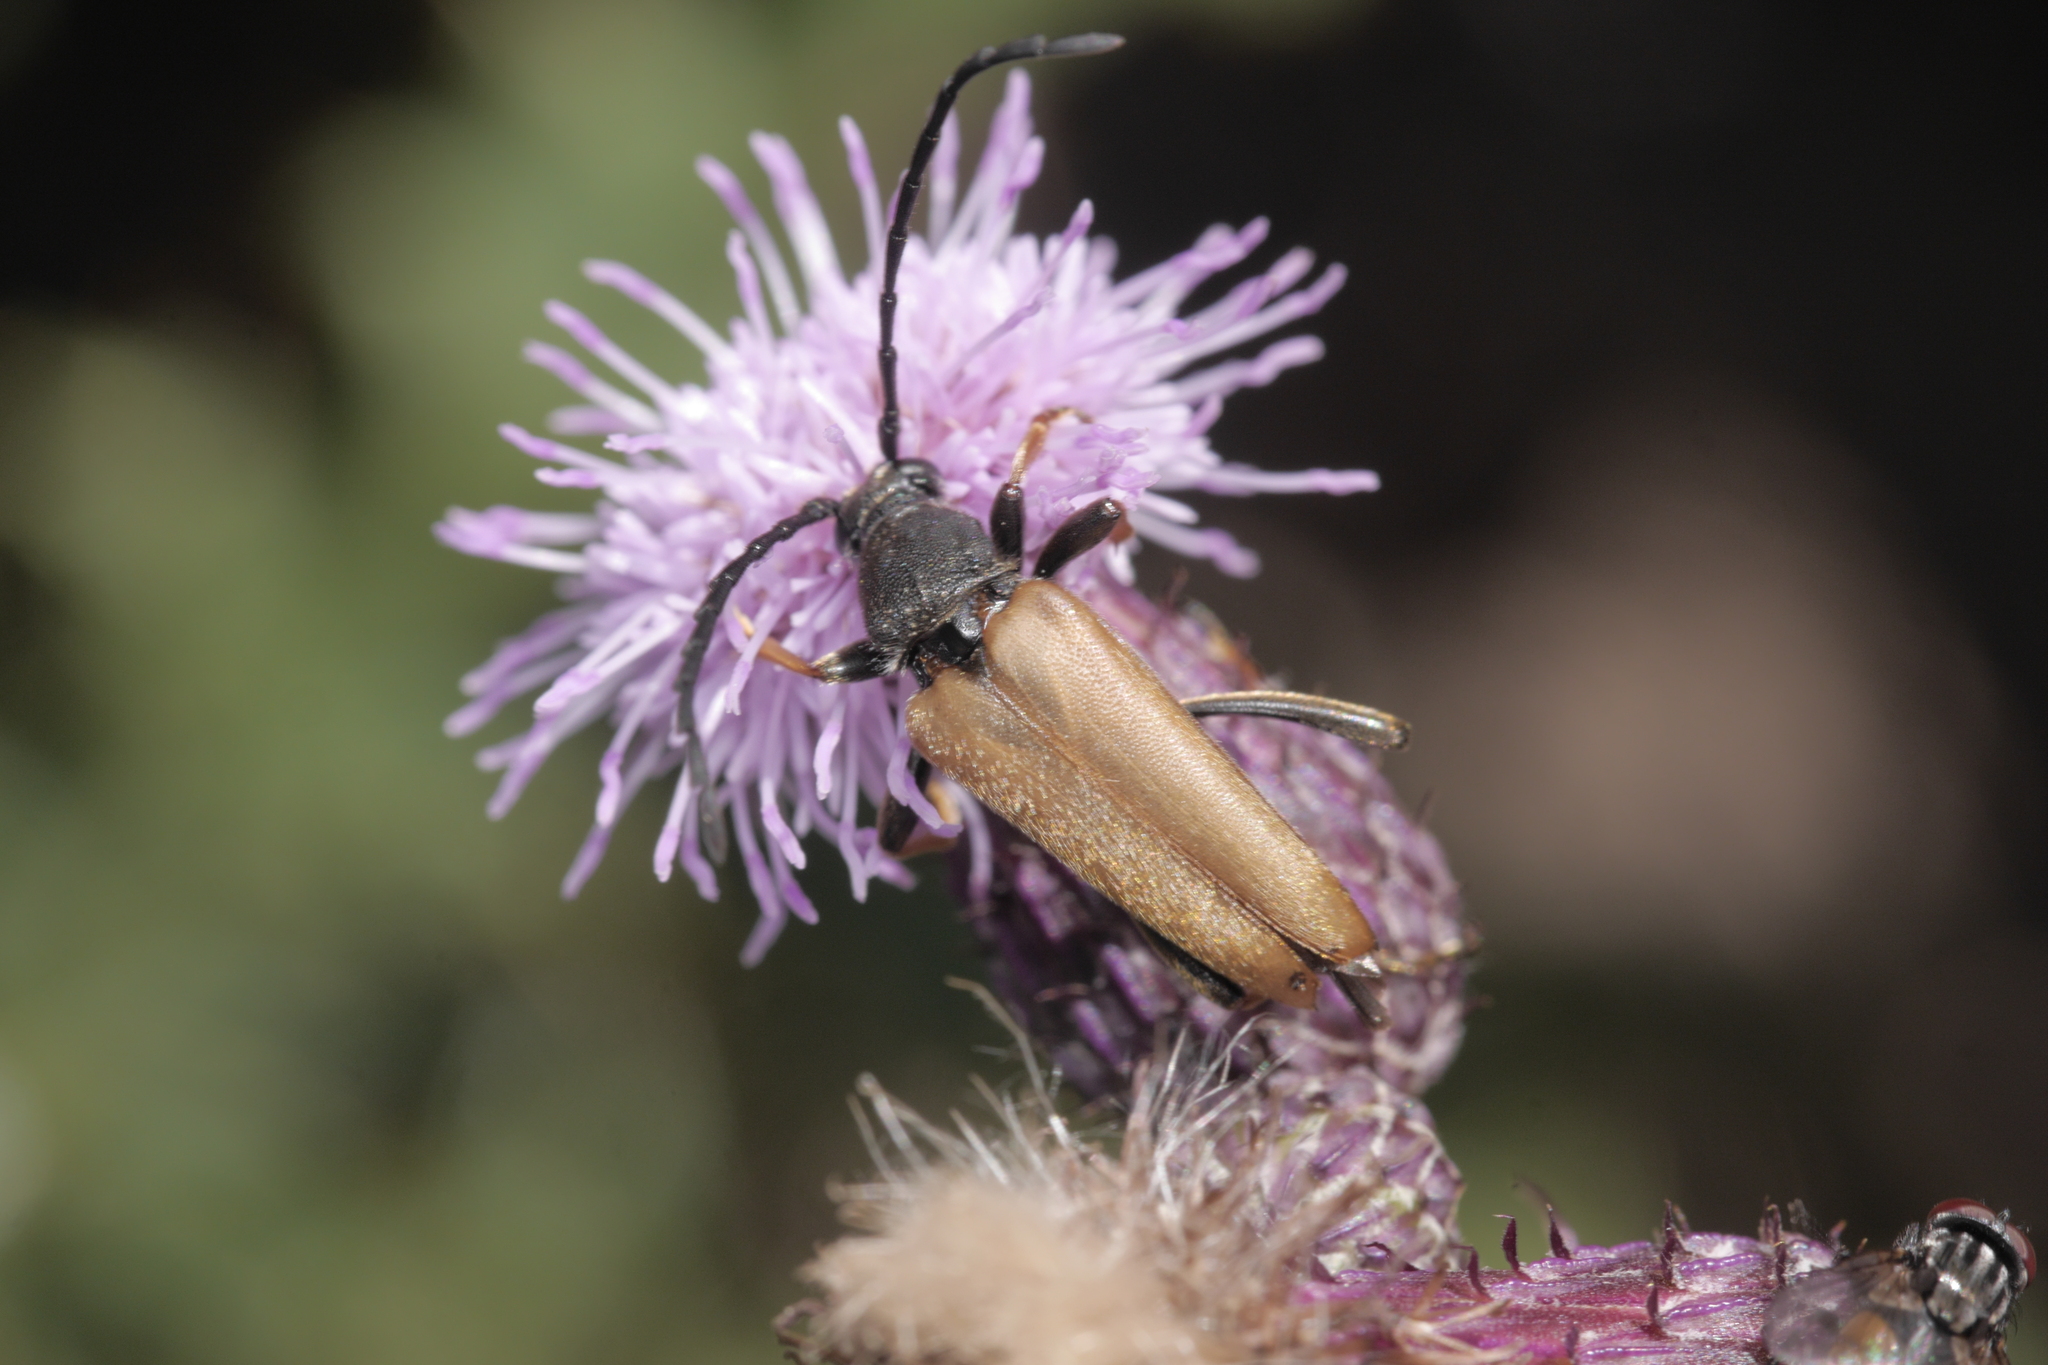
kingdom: Animalia
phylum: Arthropoda
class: Insecta
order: Coleoptera
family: Cerambycidae
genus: Stictoleptura
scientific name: Stictoleptura rubra
